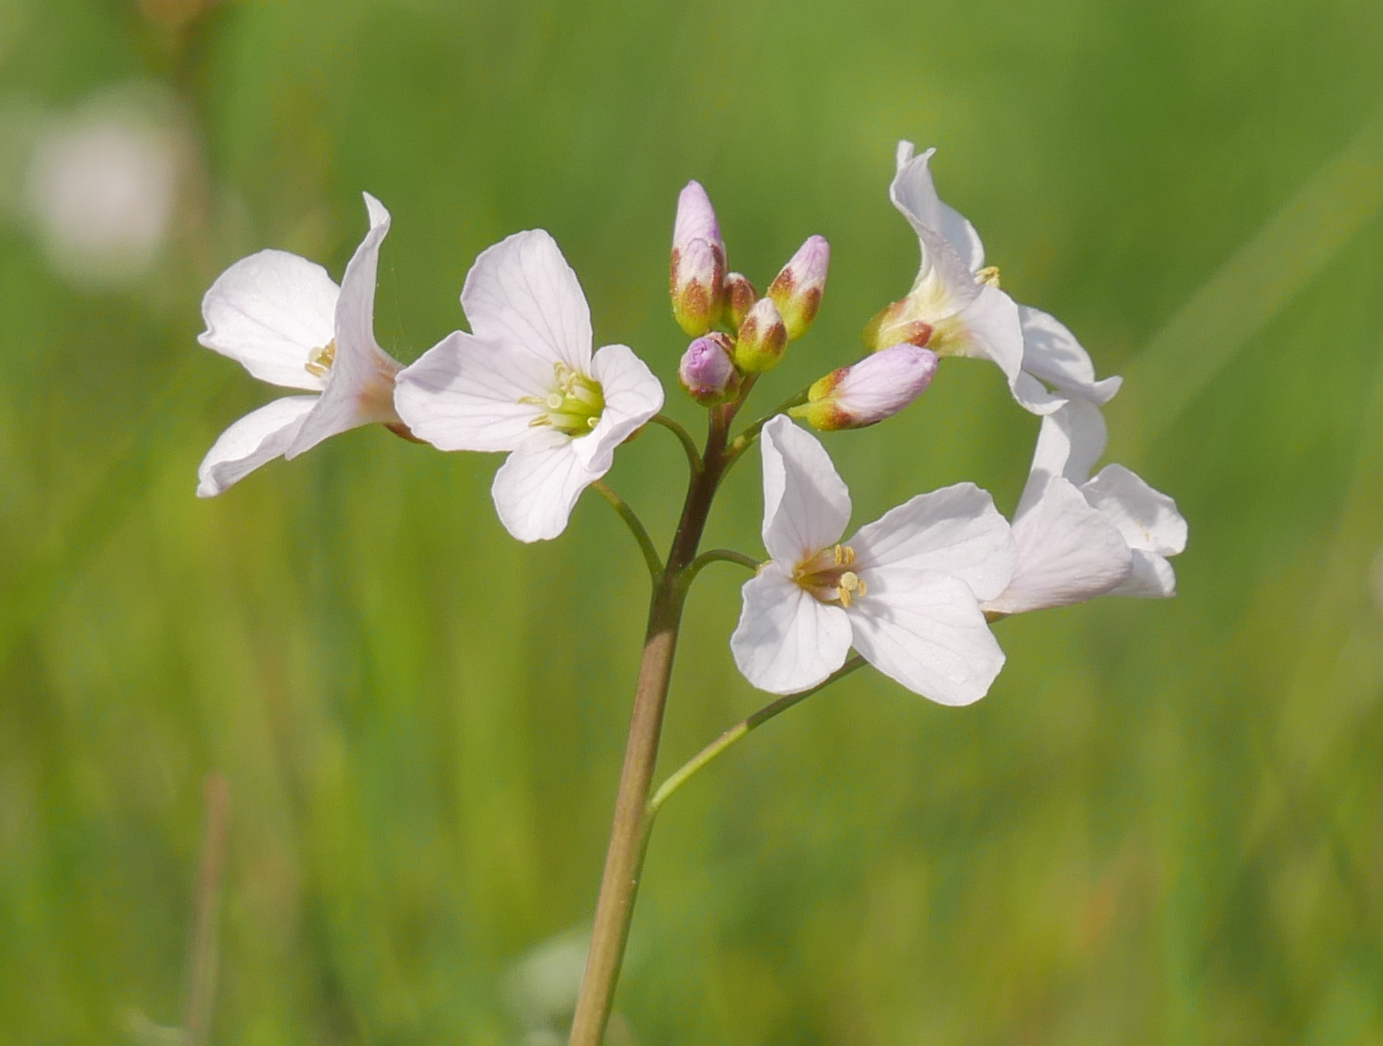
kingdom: Plantae
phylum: Tracheophyta
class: Magnoliopsida
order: Brassicales
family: Brassicaceae
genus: Cardamine
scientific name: Cardamine pratensis
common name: Cuckoo flower
